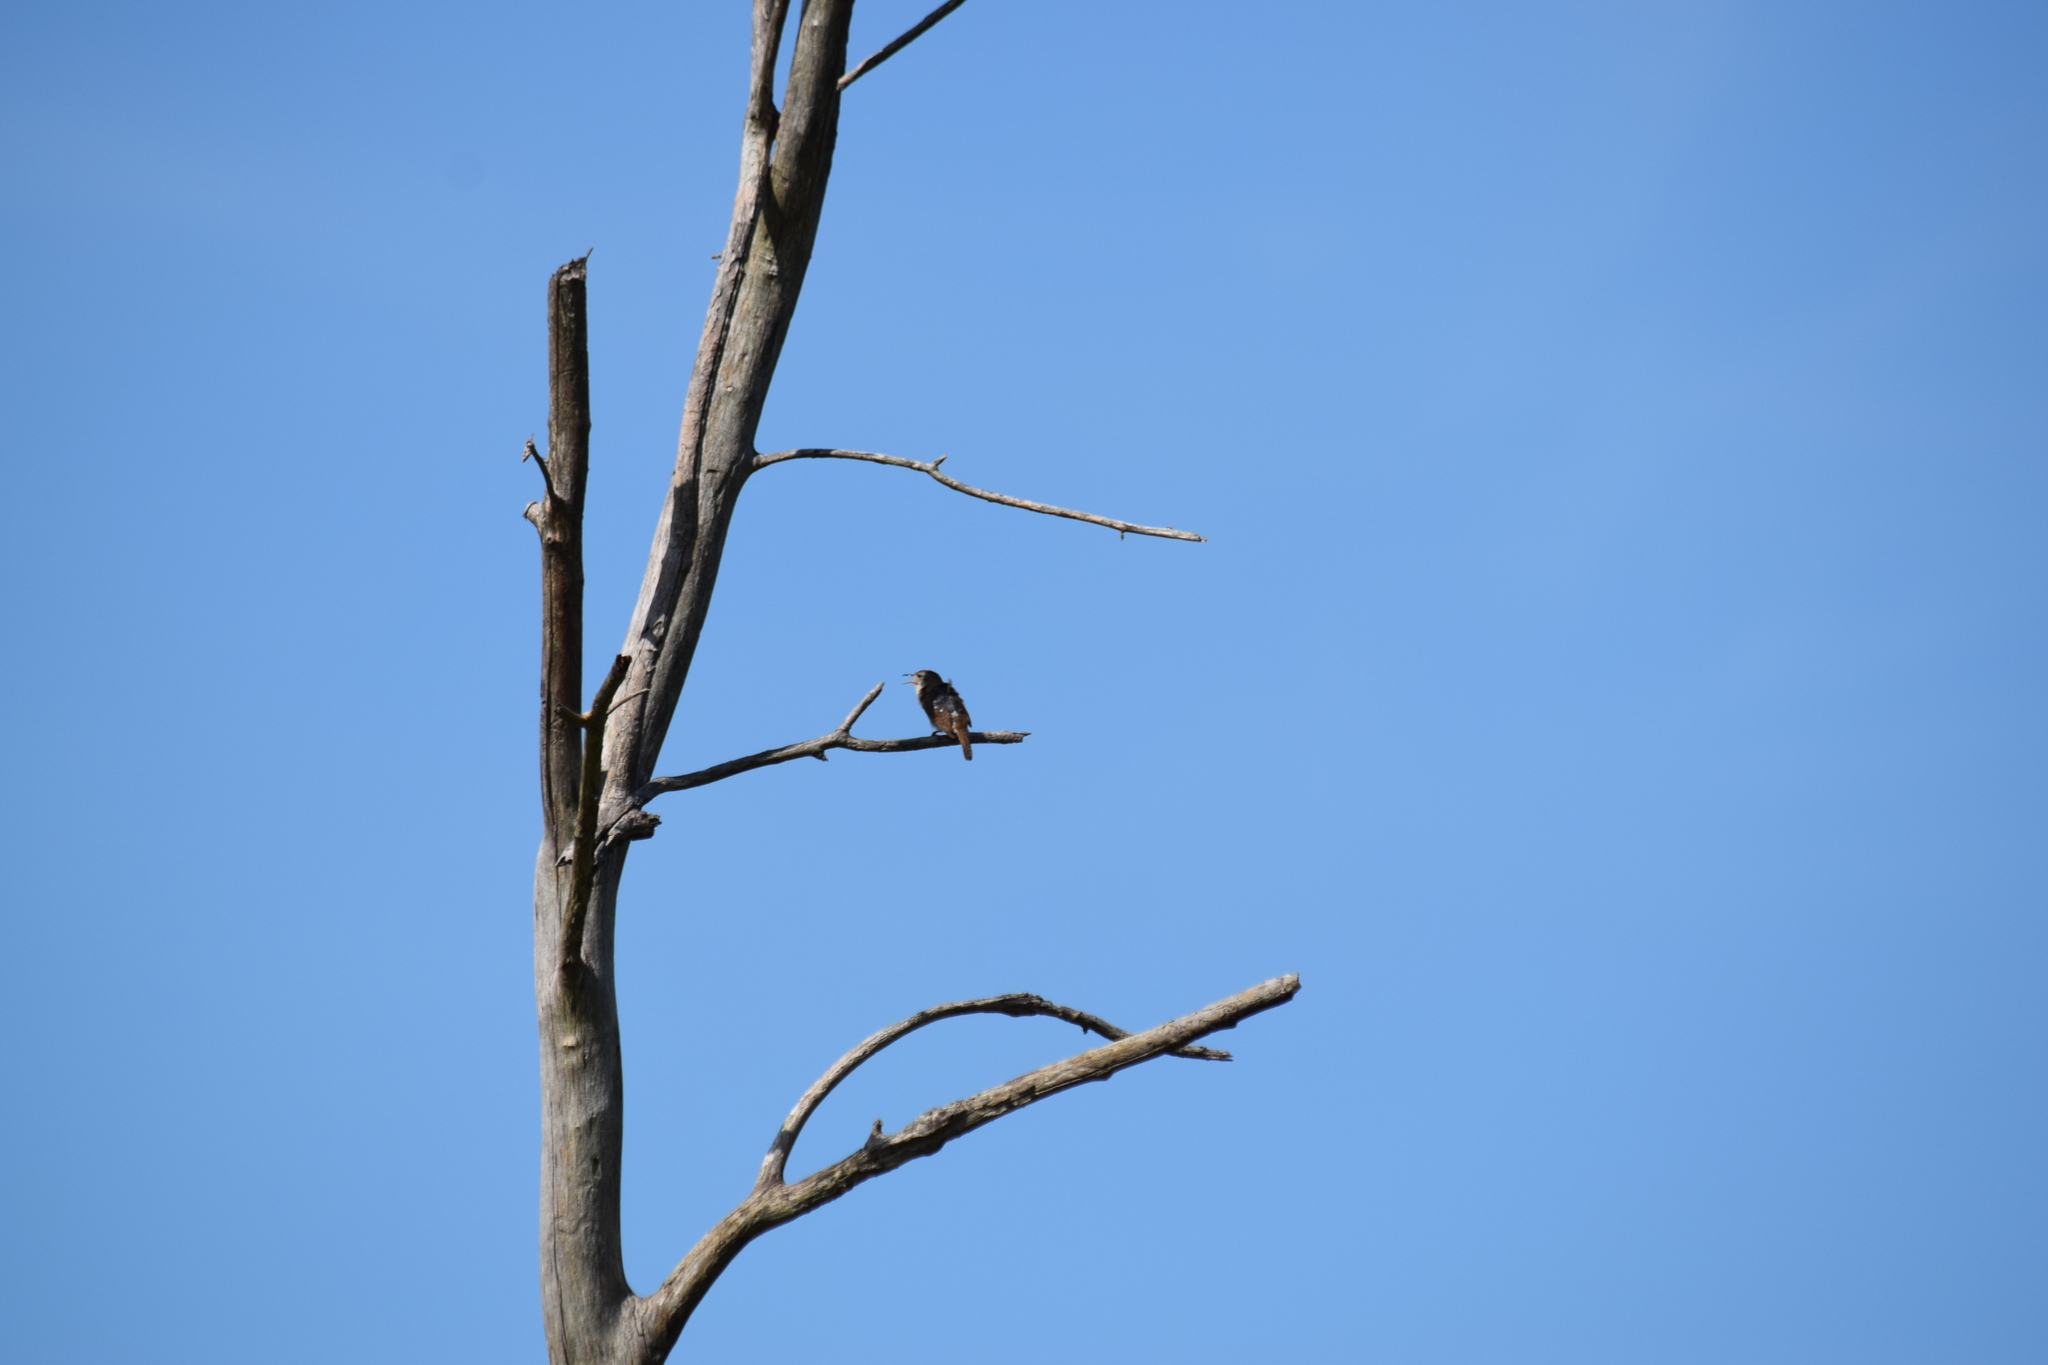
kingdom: Animalia
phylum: Chordata
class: Aves
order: Passeriformes
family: Troglodytidae
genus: Thryothorus
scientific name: Thryothorus ludovicianus
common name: Carolina wren
